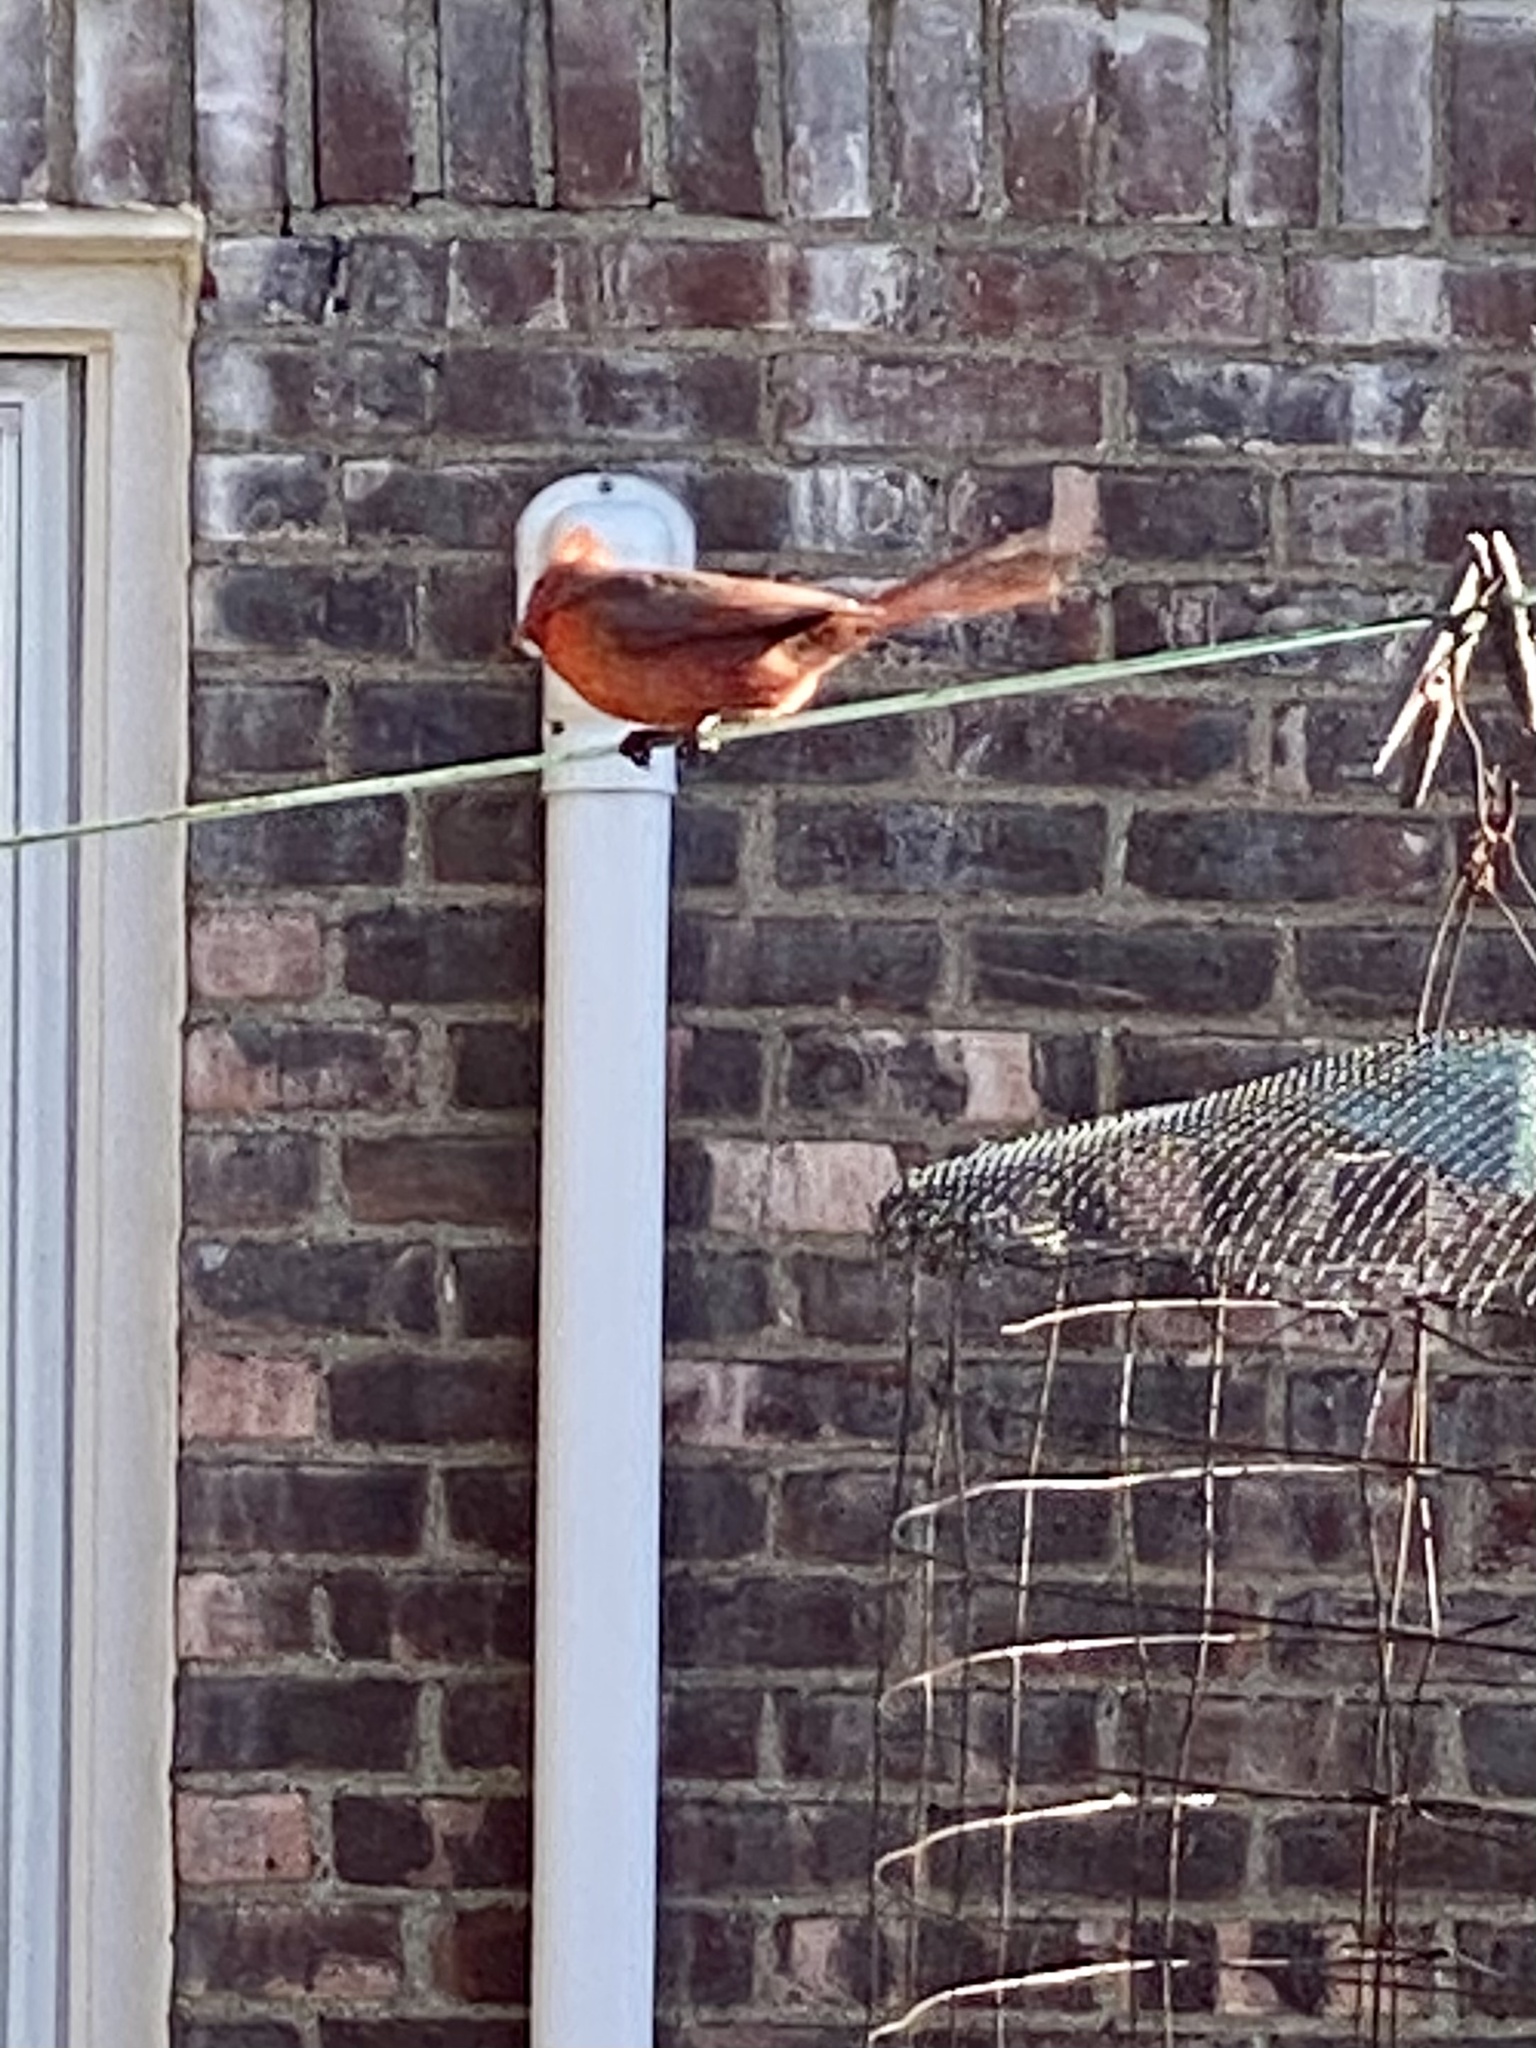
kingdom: Animalia
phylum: Chordata
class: Aves
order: Passeriformes
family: Cardinalidae
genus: Cardinalis
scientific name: Cardinalis cardinalis
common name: Northern cardinal
